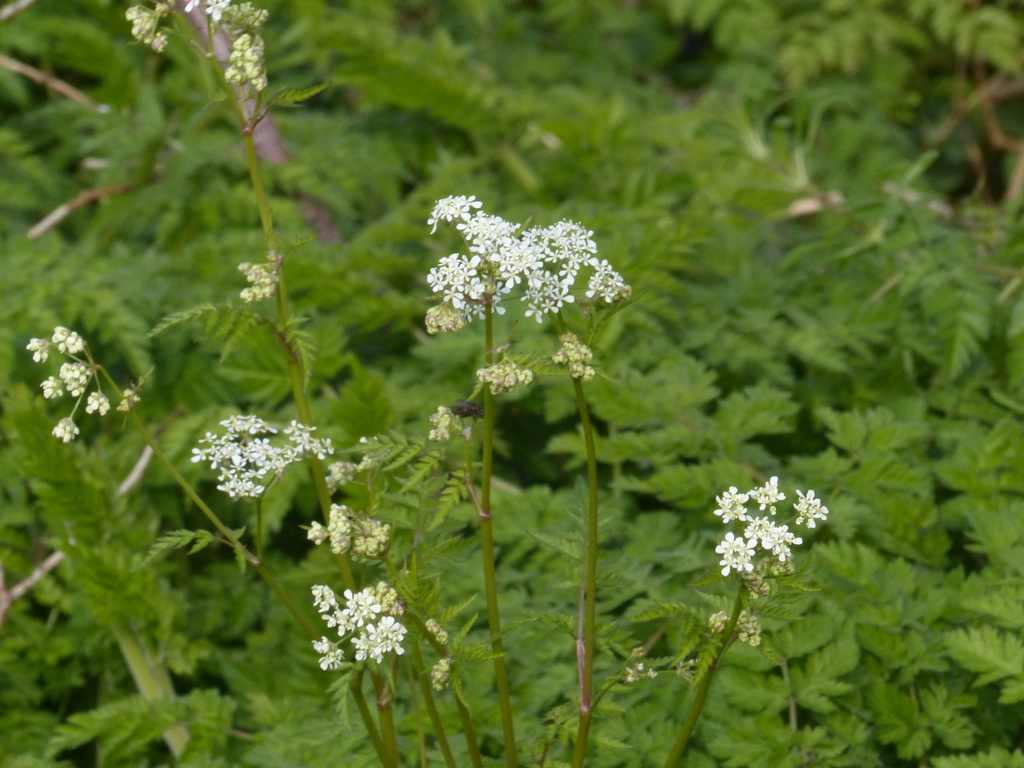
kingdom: Plantae
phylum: Tracheophyta
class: Magnoliopsida
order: Apiales
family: Apiaceae
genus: Anthriscus
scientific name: Anthriscus sylvestris
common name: Cow parsley
